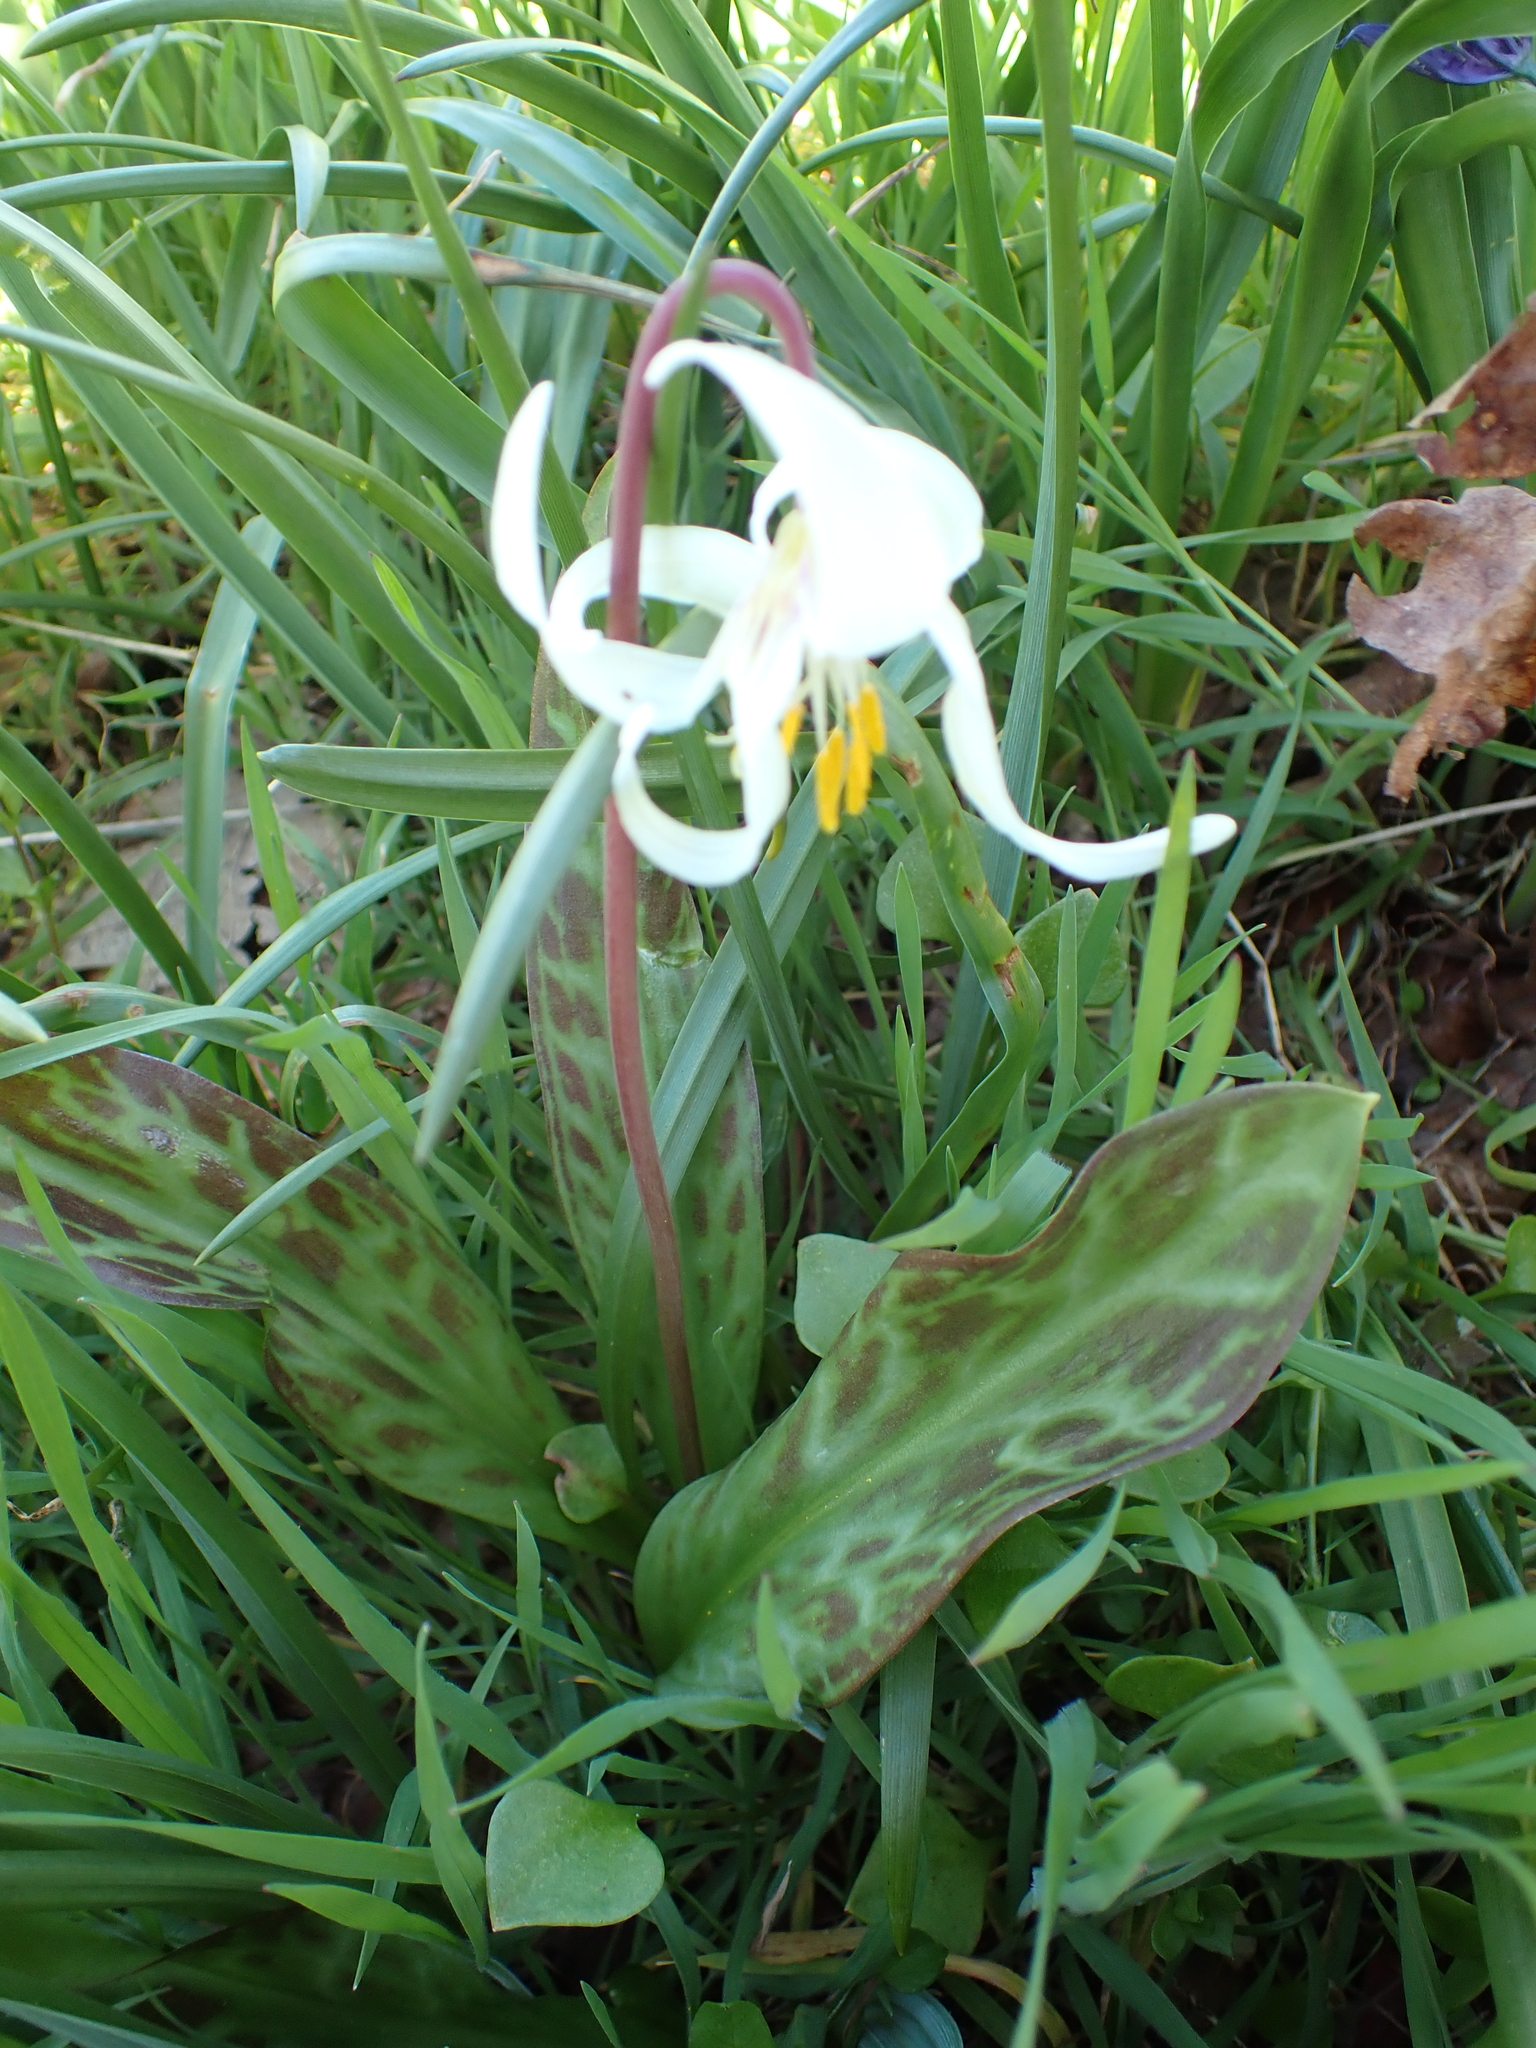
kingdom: Plantae
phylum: Tracheophyta
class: Liliopsida
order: Liliales
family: Liliaceae
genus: Erythronium
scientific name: Erythronium oregonum
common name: Giant adder's-tongue
